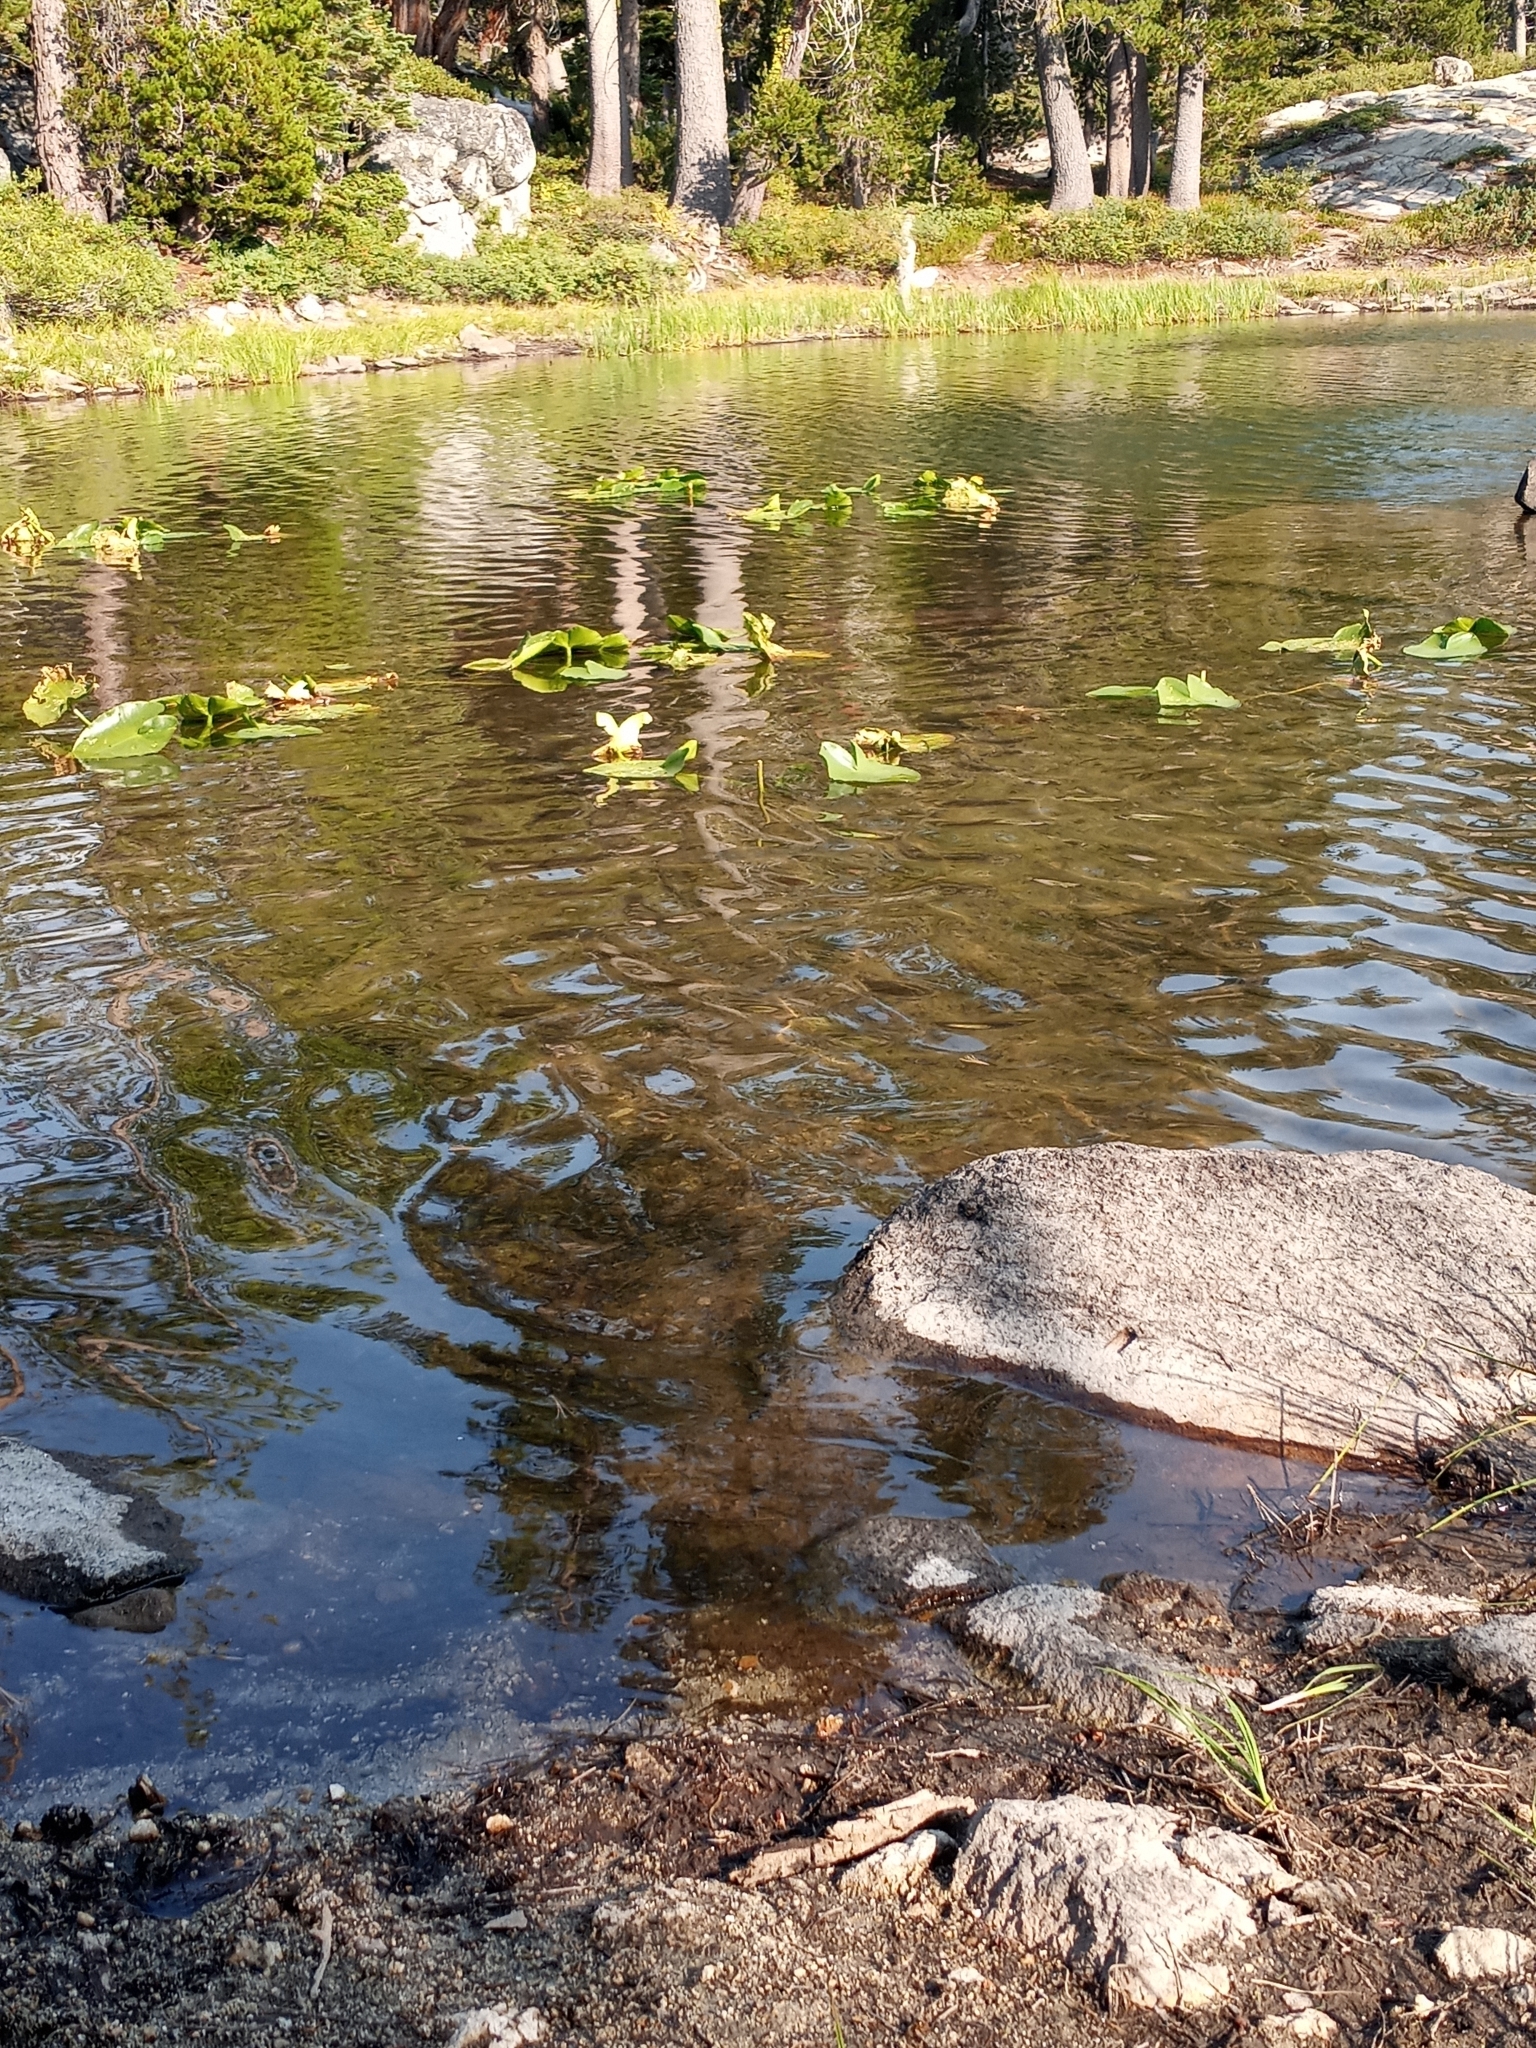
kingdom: Plantae
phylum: Tracheophyta
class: Magnoliopsida
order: Nymphaeales
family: Nymphaeaceae
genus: Nuphar
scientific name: Nuphar polysepala
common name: Rocky mountain cow-lily
